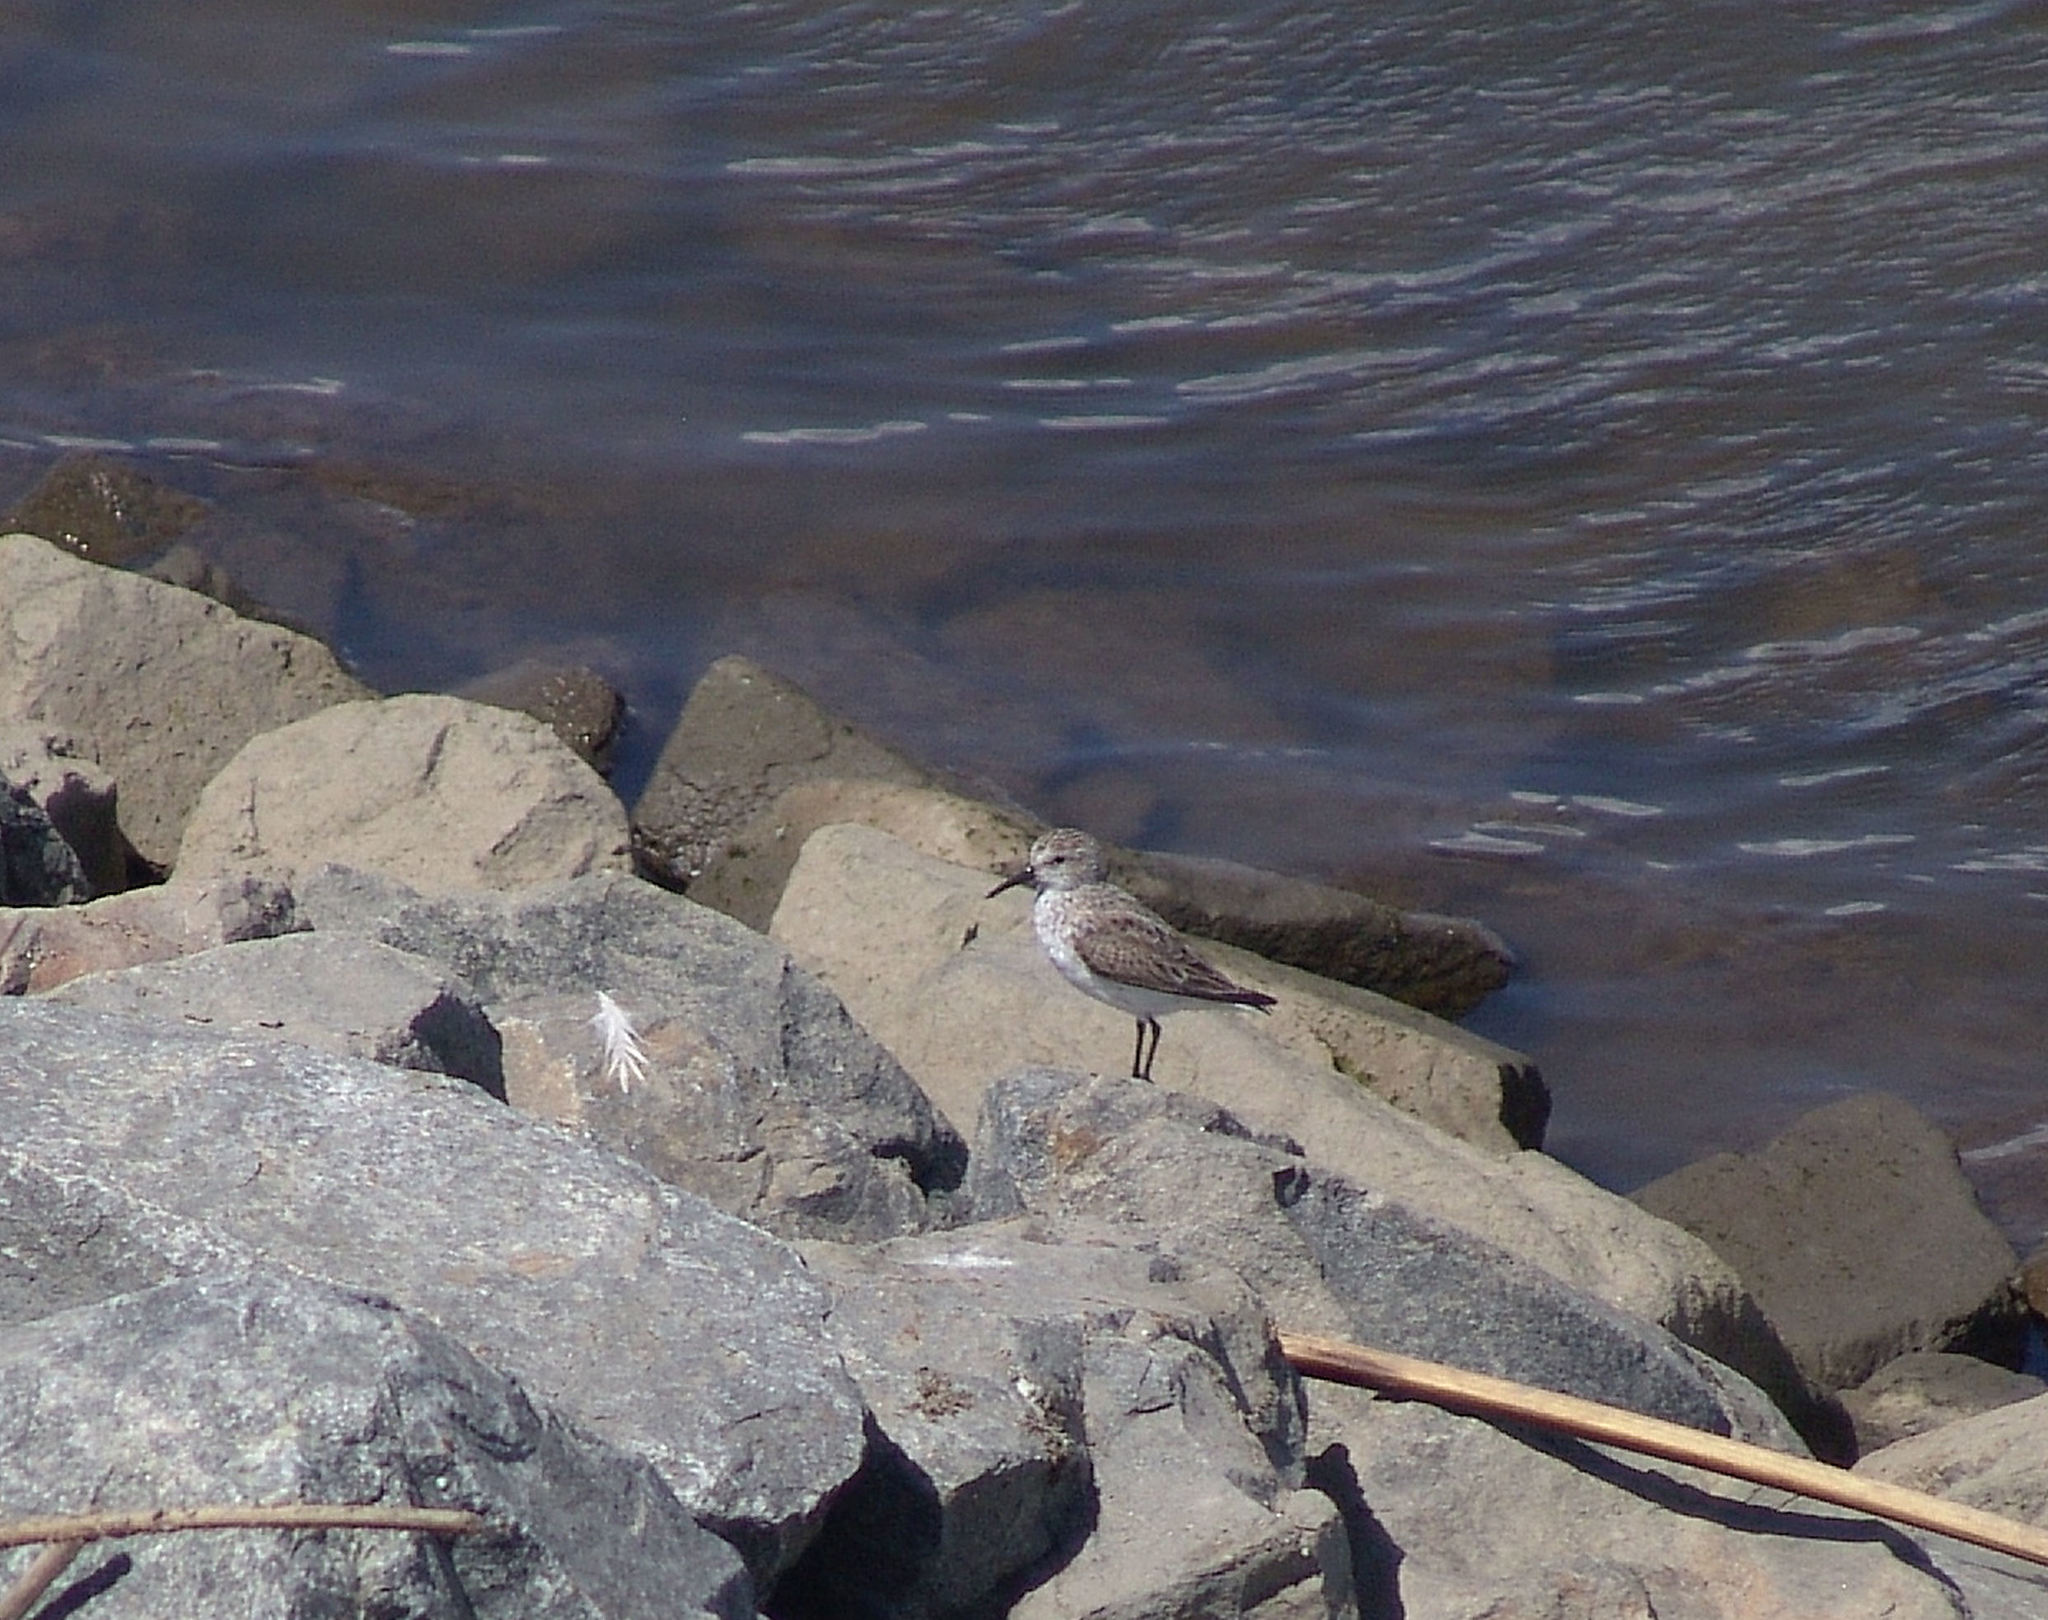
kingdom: Animalia
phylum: Chordata
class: Aves
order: Charadriiformes
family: Scolopacidae
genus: Calidris
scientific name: Calidris mauri
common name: Western sandpiper
